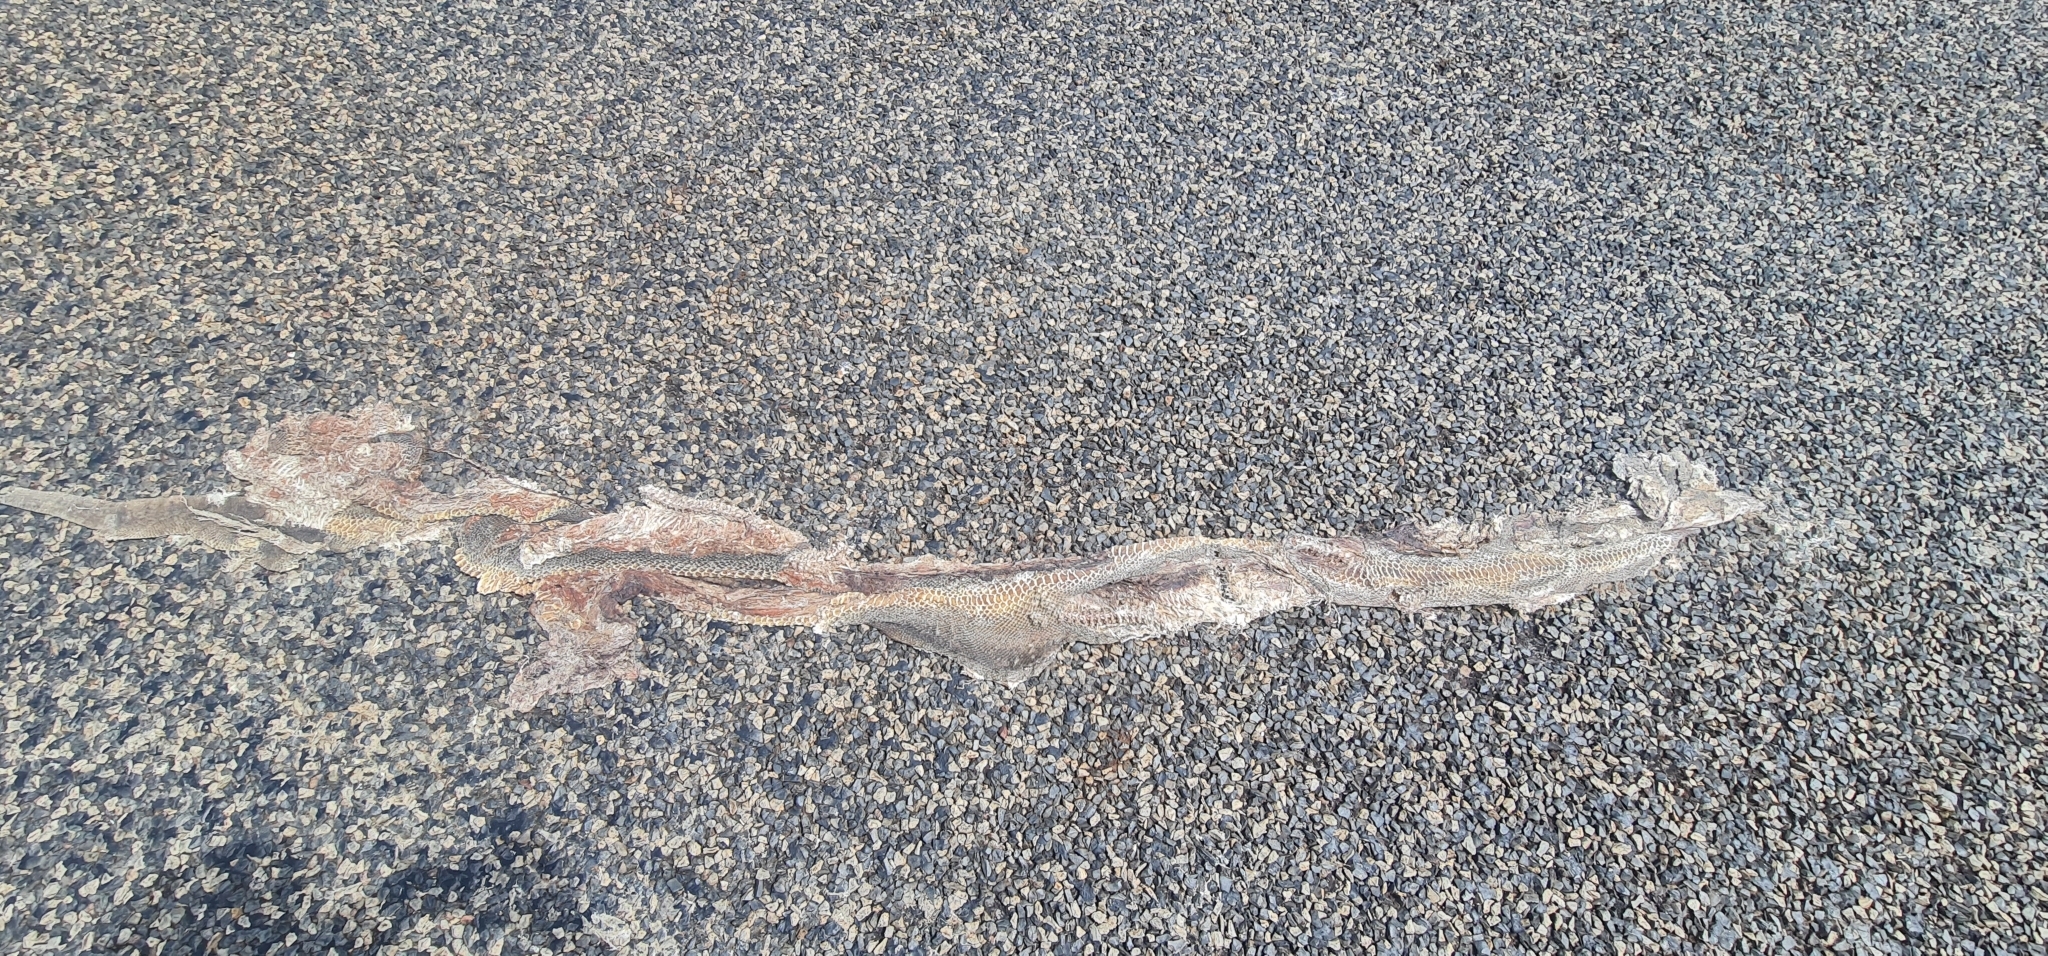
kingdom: Animalia
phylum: Chordata
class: Squamata
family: Pythonidae
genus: Liasis
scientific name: Liasis olivaceus
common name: Olive python
